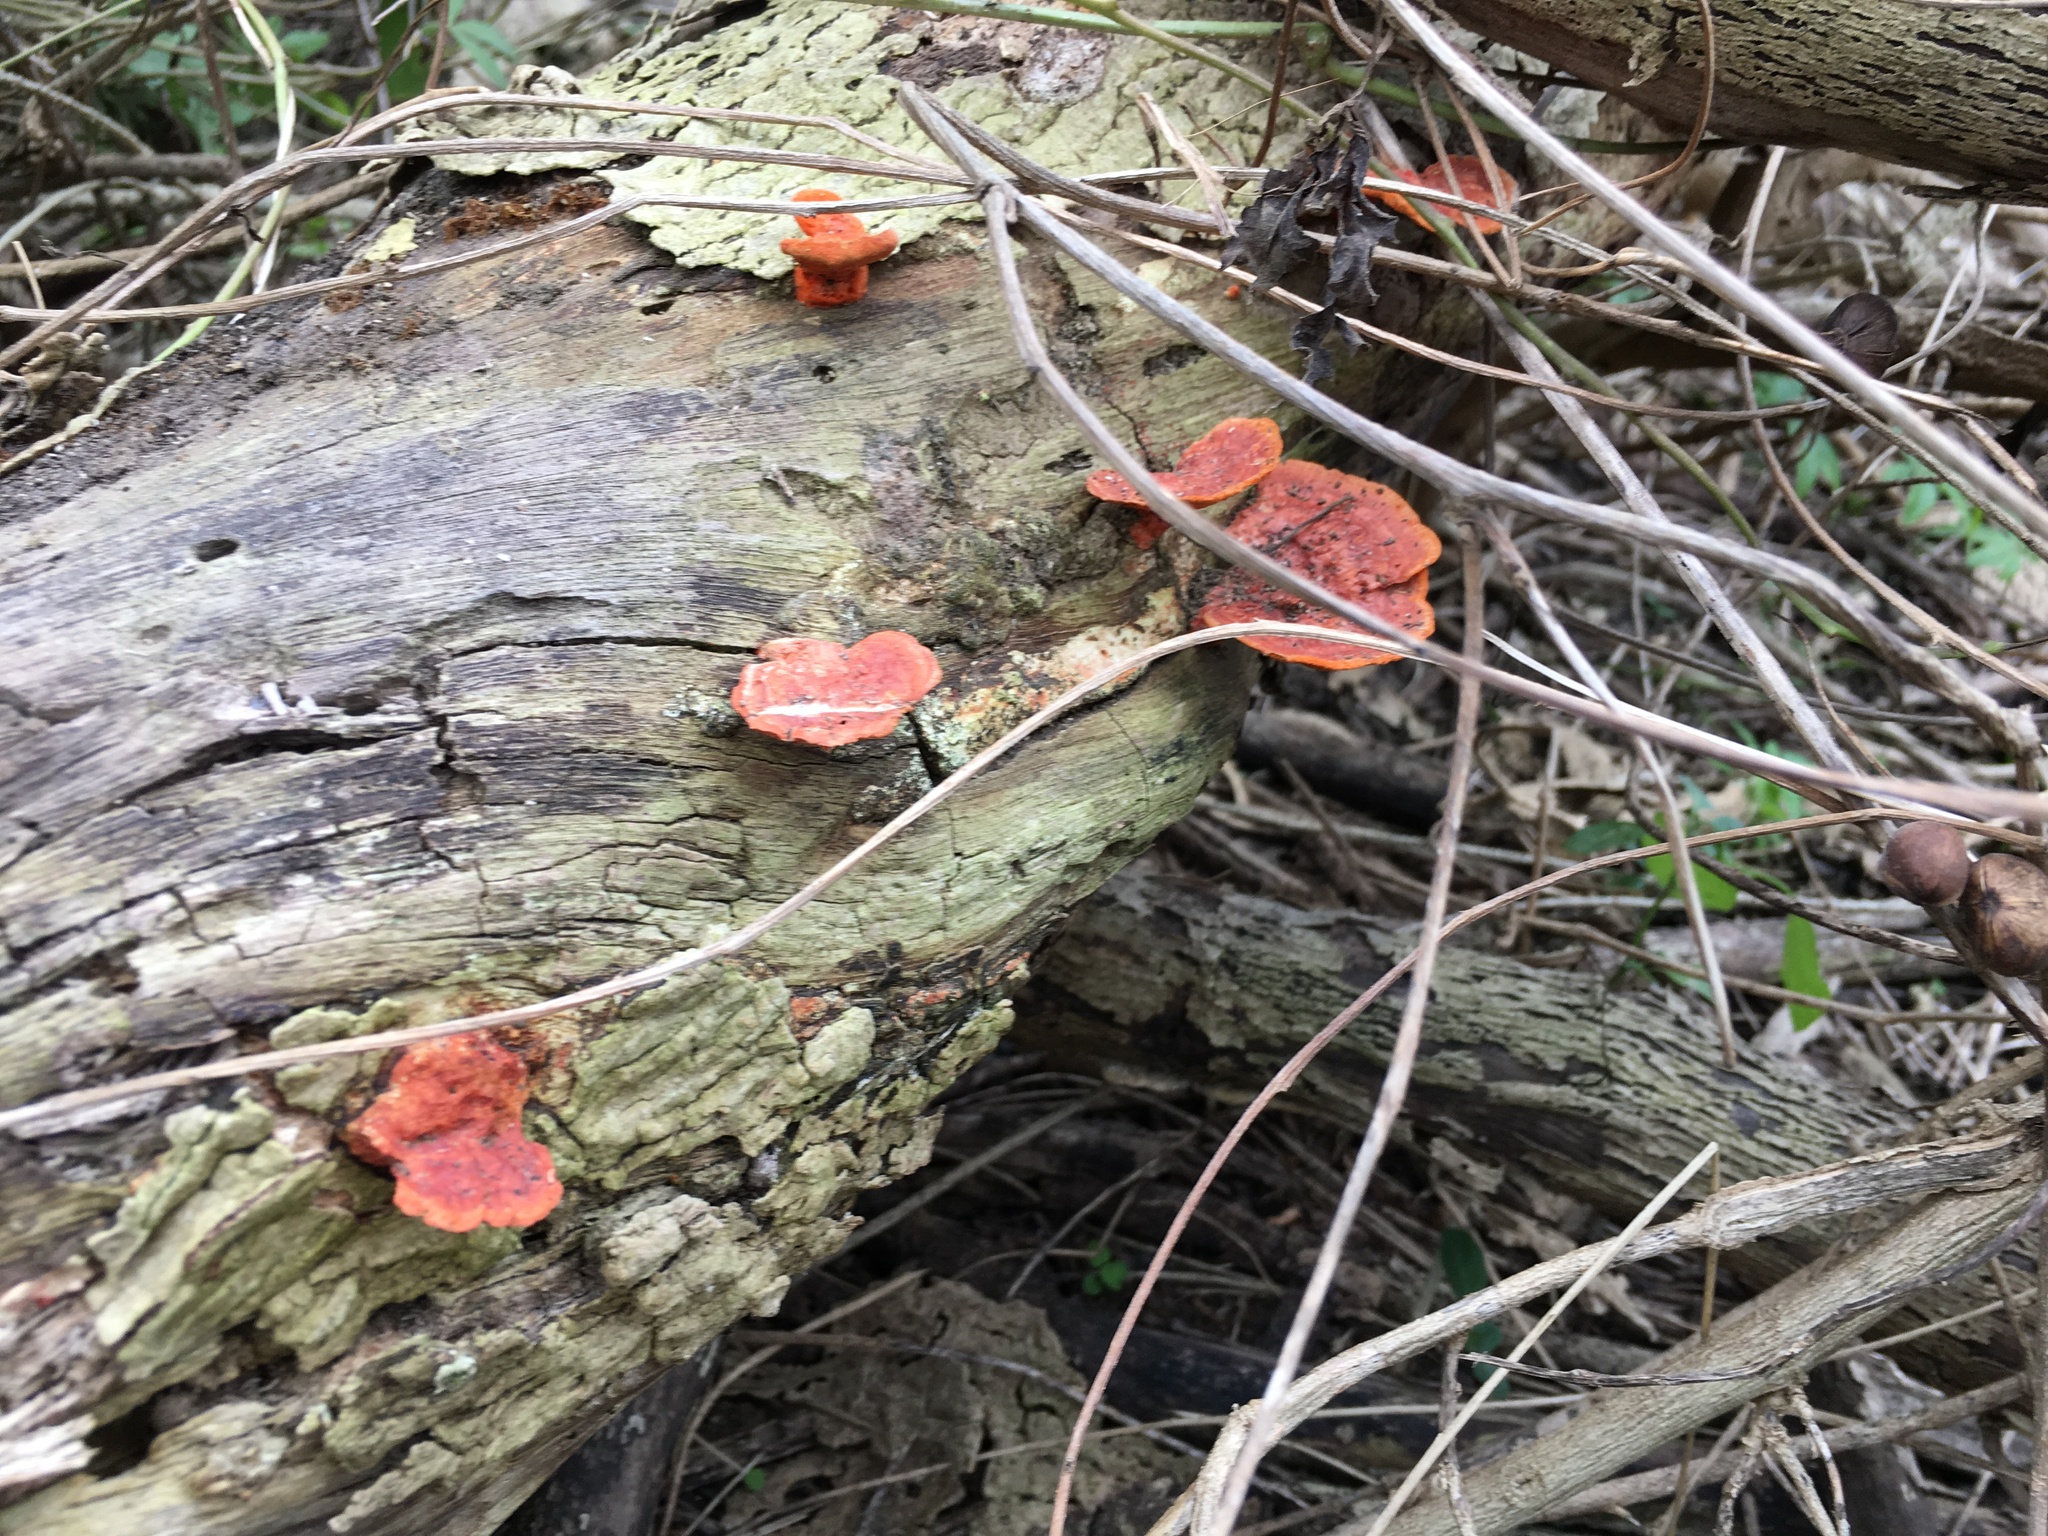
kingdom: Fungi
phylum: Basidiomycota
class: Agaricomycetes
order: Polyporales
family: Polyporaceae
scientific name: Polyporaceae
